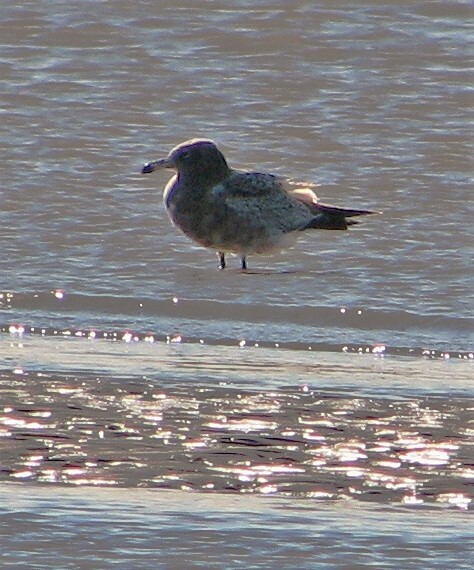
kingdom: Animalia
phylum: Chordata
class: Aves
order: Charadriiformes
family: Laridae
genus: Larus
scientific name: Larus atlanticus
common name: Olrog's gull
